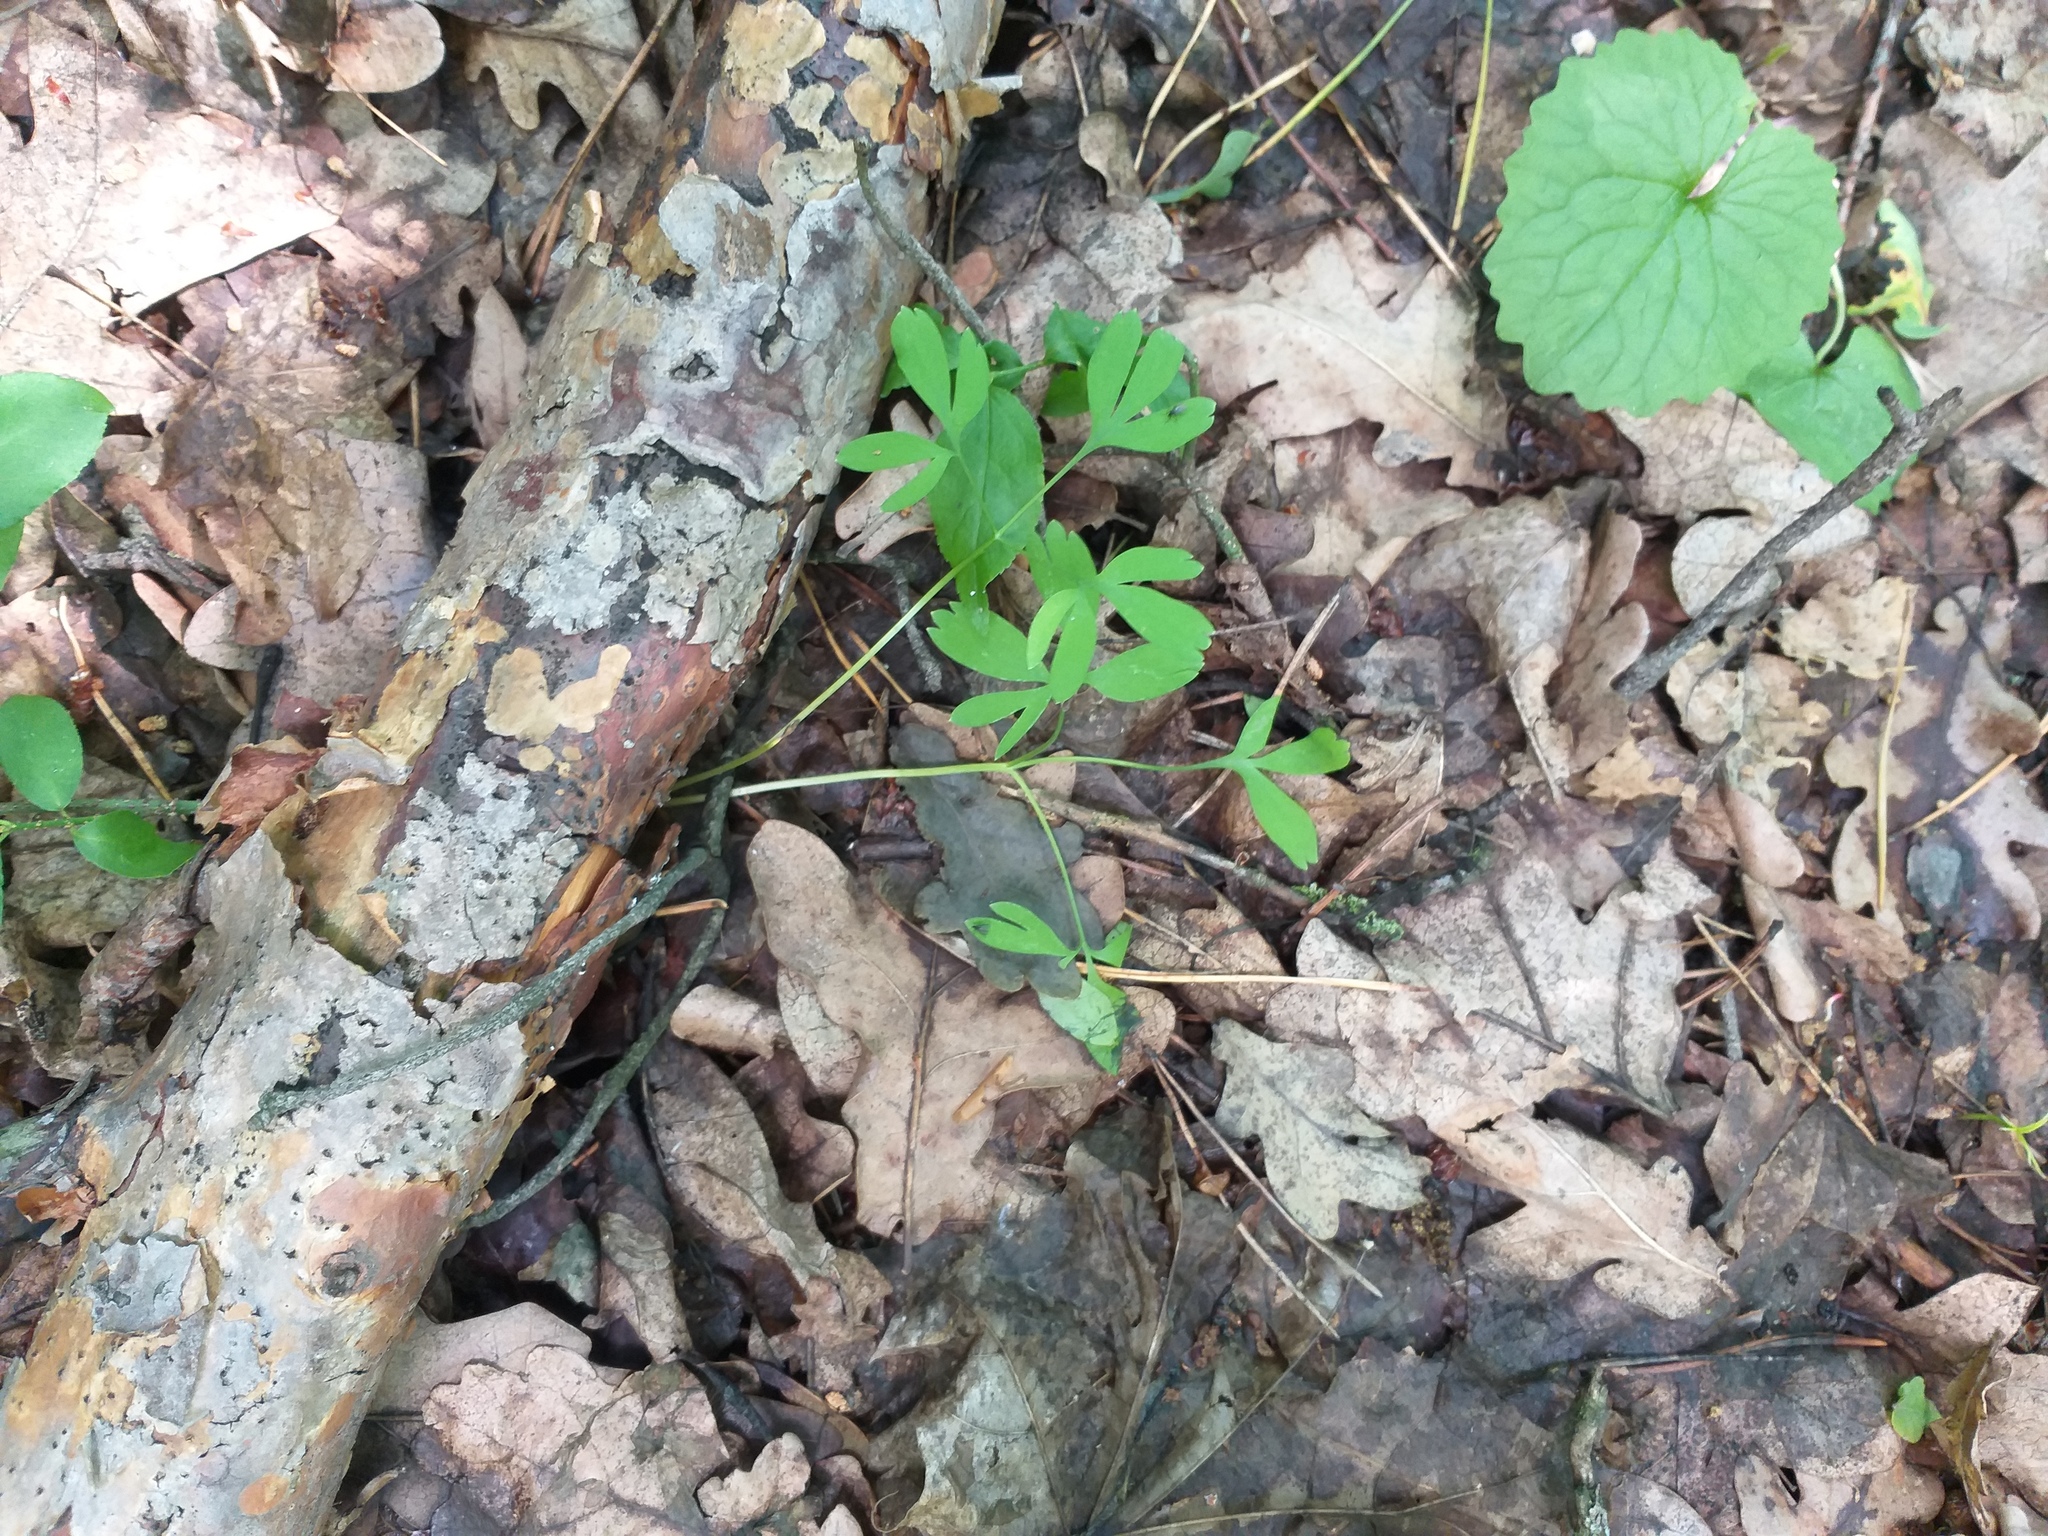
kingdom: Plantae
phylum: Tracheophyta
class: Magnoliopsida
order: Ranunculales
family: Papaveraceae
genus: Corydalis
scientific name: Corydalis solida
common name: Bird-in-a-bush
